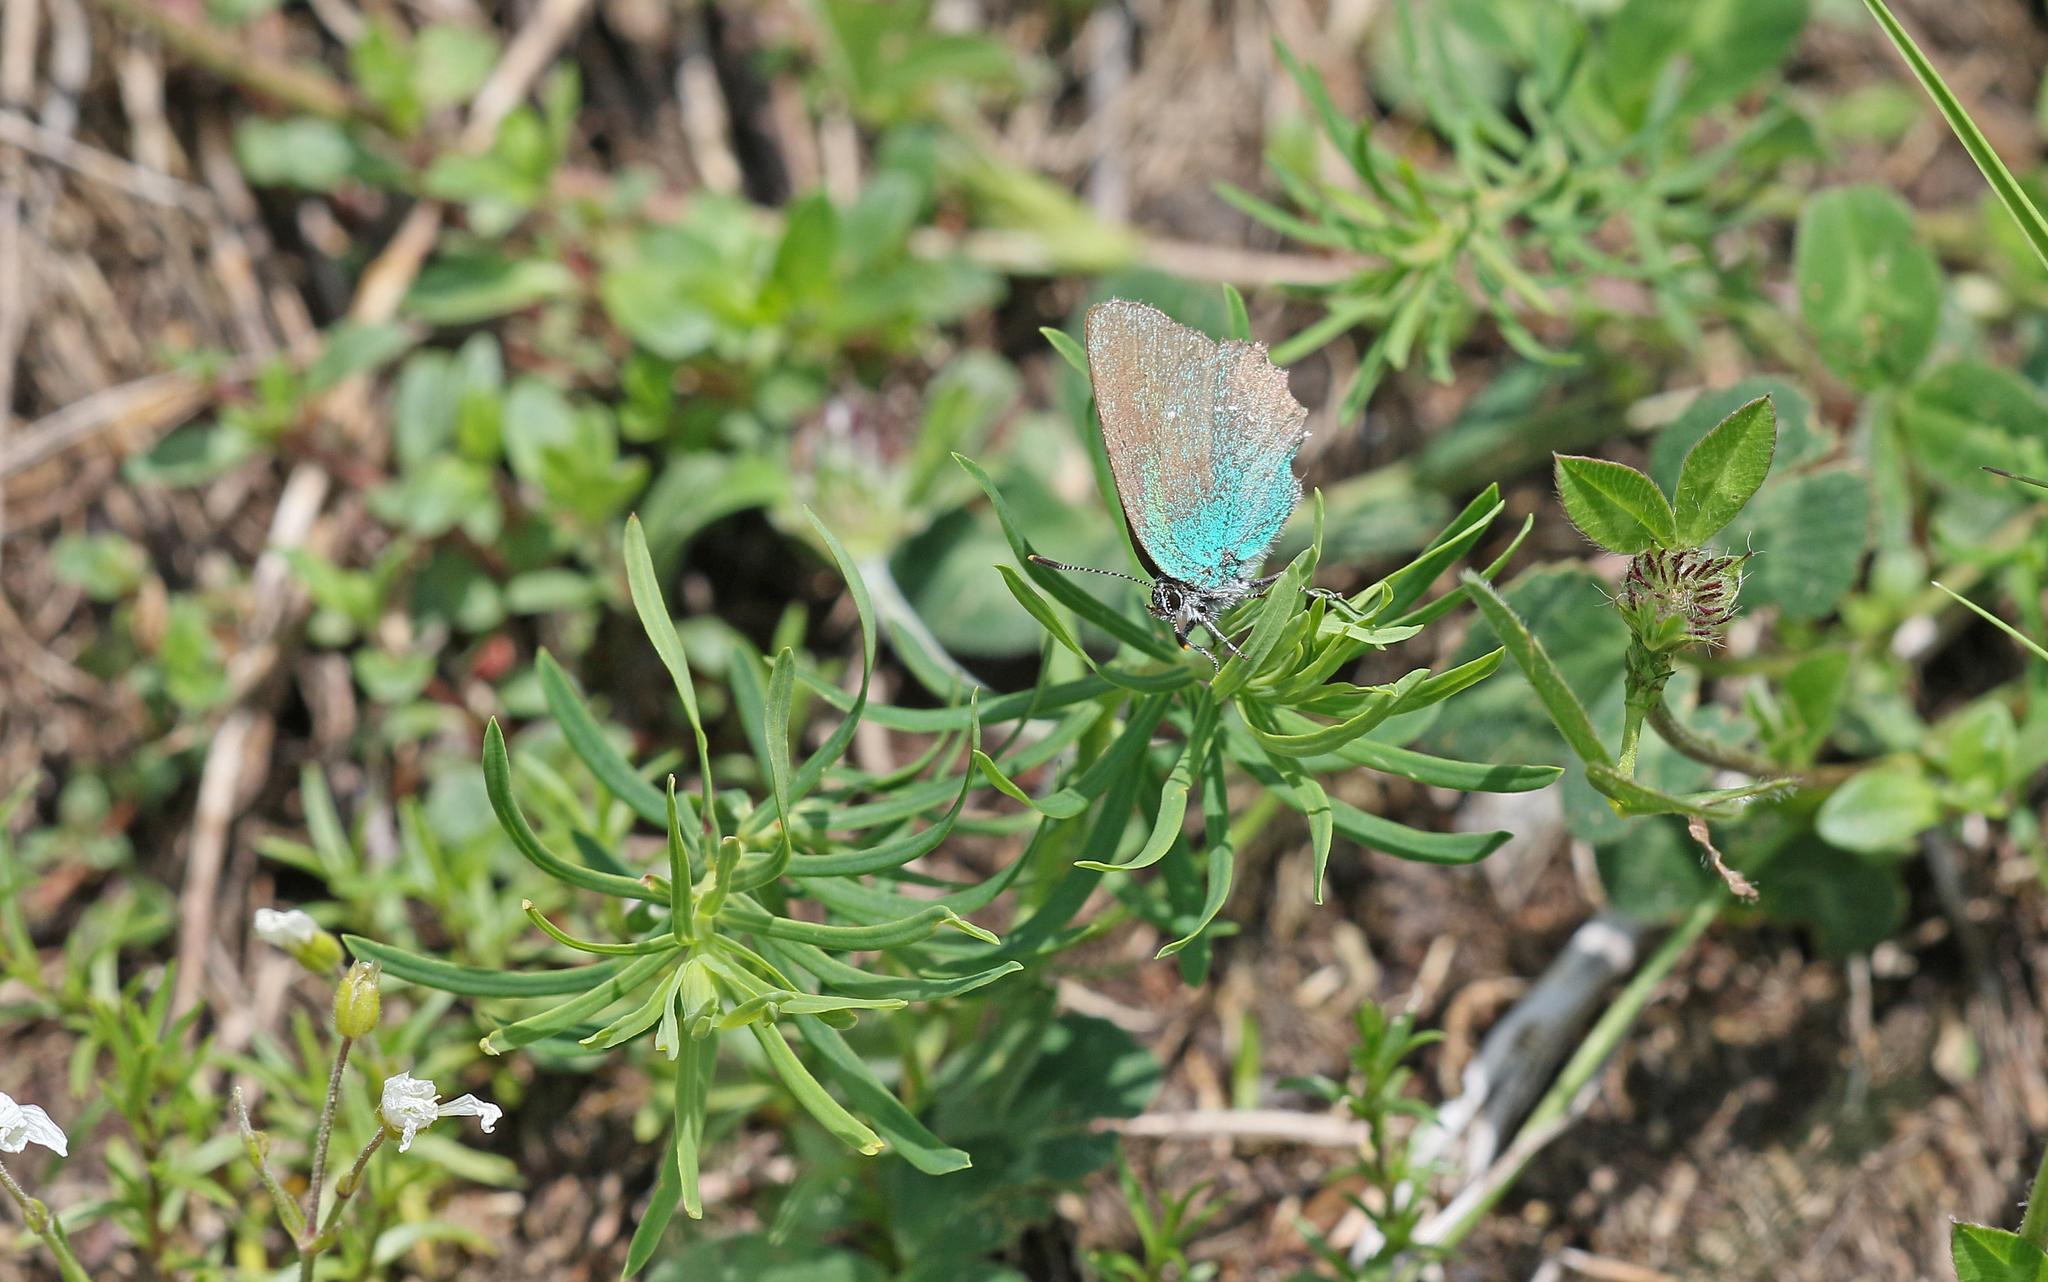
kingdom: Animalia
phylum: Arthropoda
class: Insecta
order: Lepidoptera
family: Lycaenidae
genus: Callophrys
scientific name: Callophrys rubi
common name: Green hairstreak
